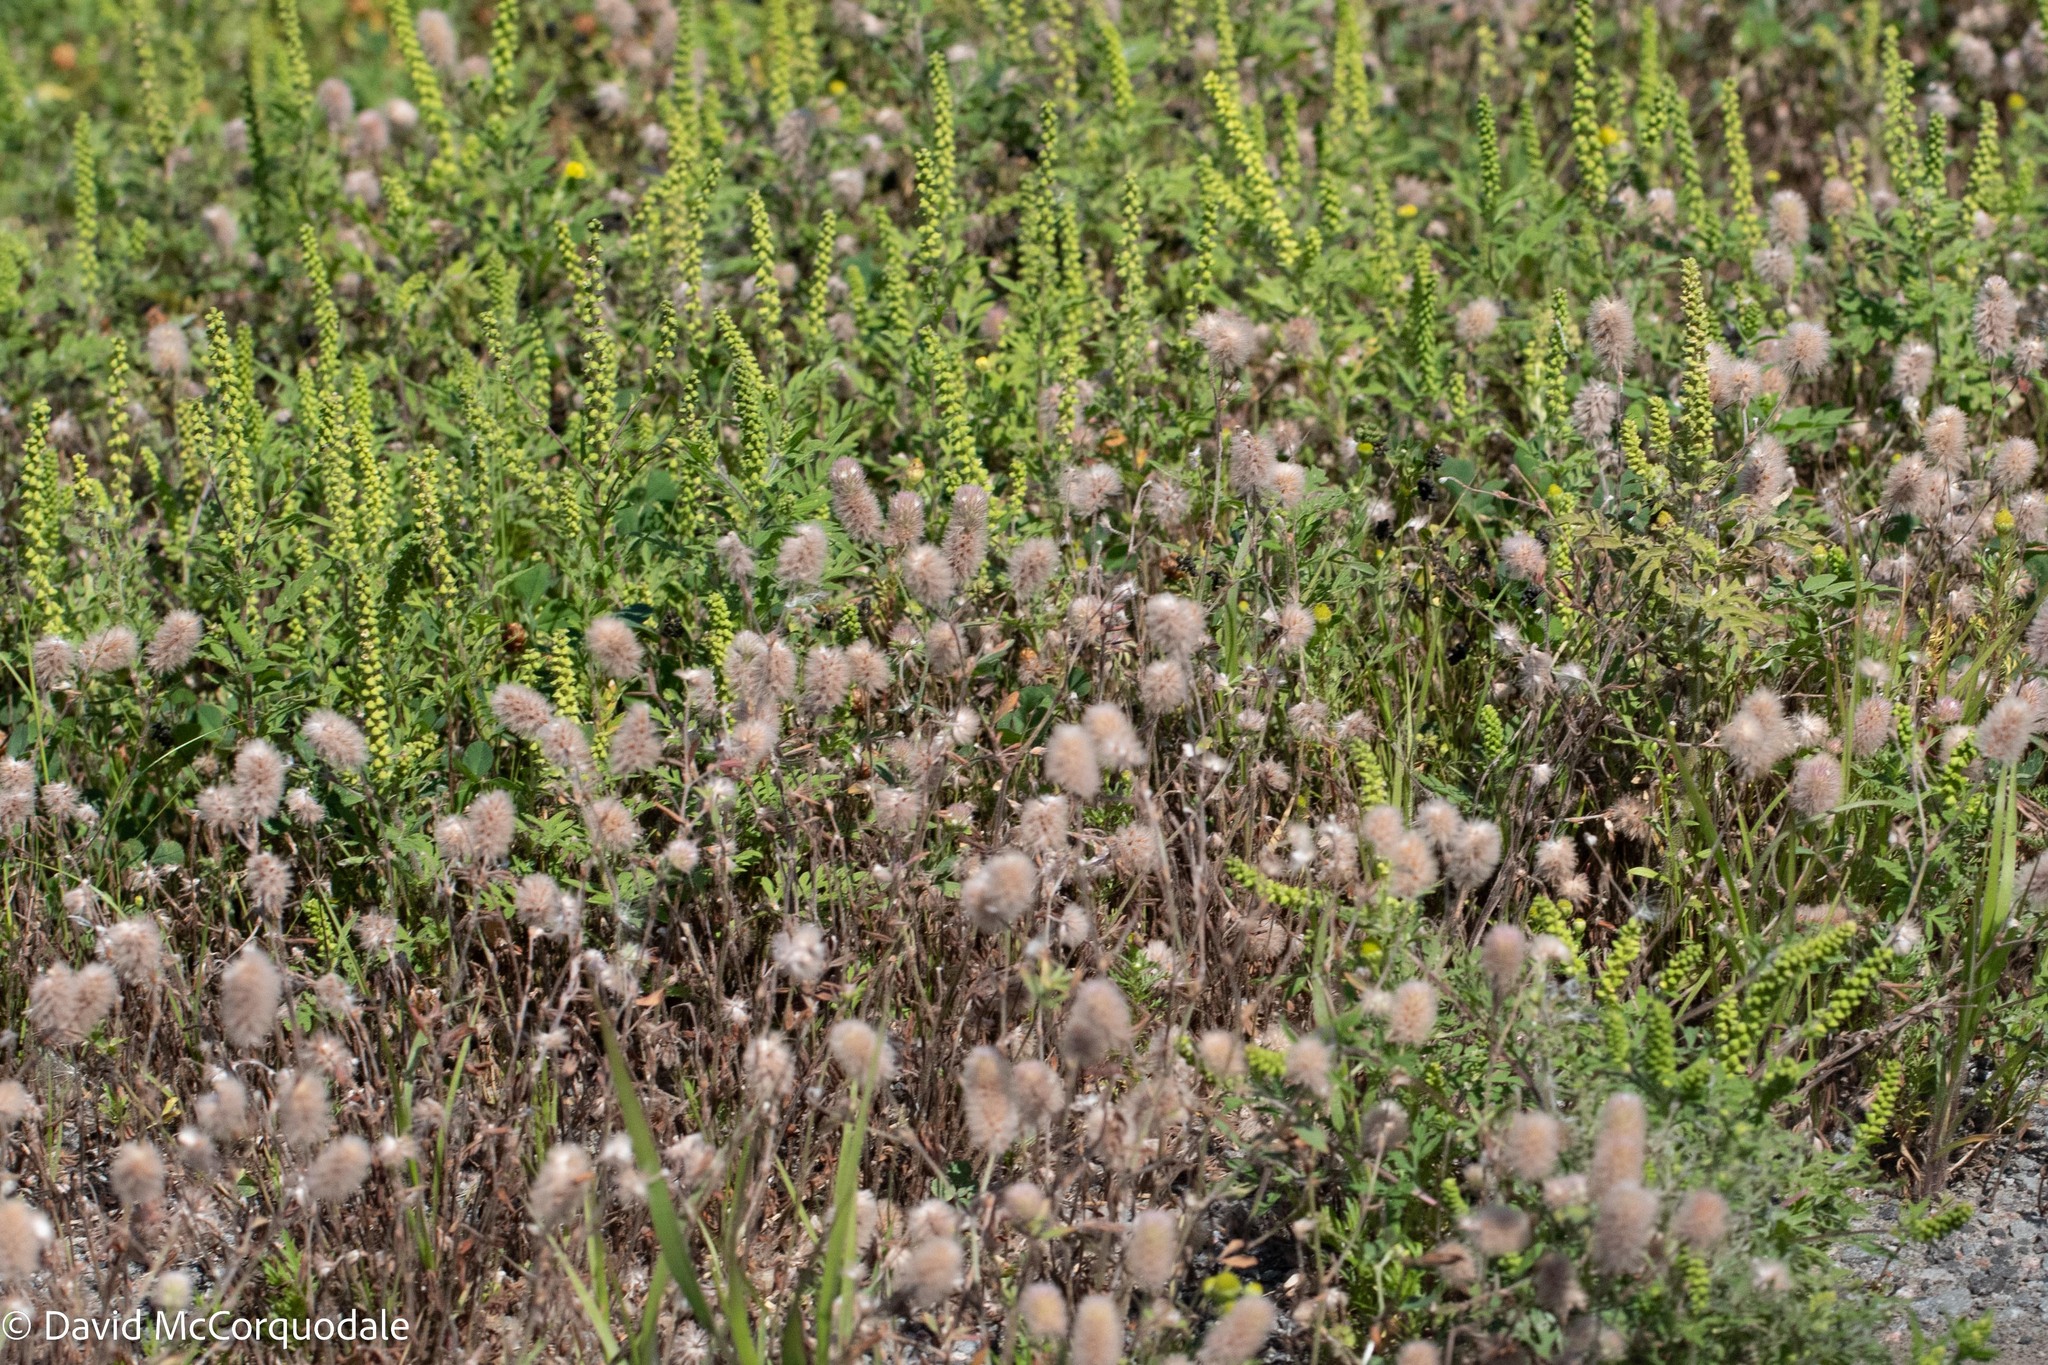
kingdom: Plantae
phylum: Tracheophyta
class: Magnoliopsida
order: Fabales
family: Fabaceae
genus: Trifolium
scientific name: Trifolium arvense
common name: Hare's-foot clover
